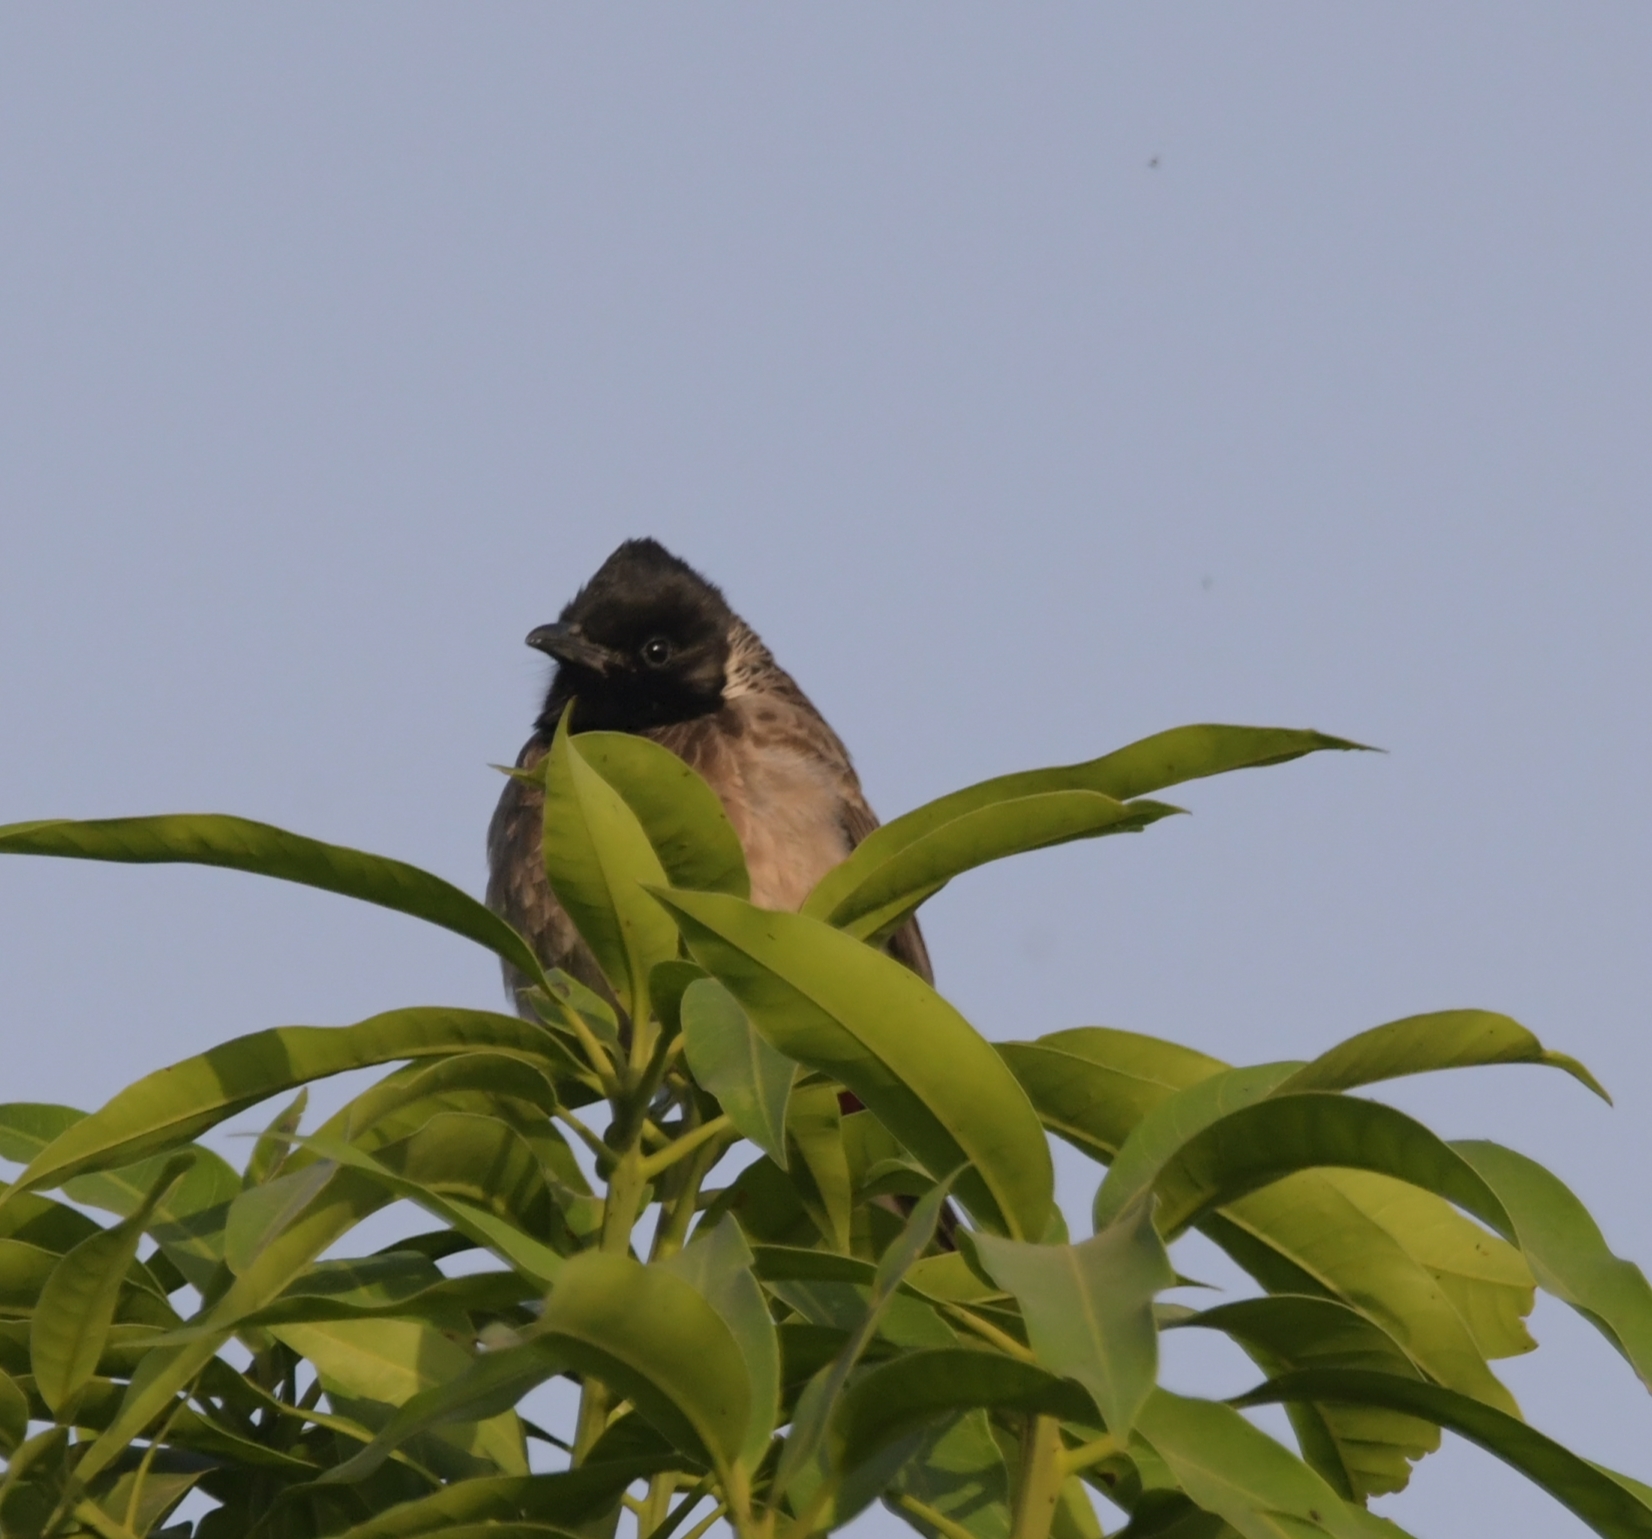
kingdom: Animalia
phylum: Chordata
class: Aves
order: Passeriformes
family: Pycnonotidae
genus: Pycnonotus
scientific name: Pycnonotus cafer
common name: Red-vented bulbul
